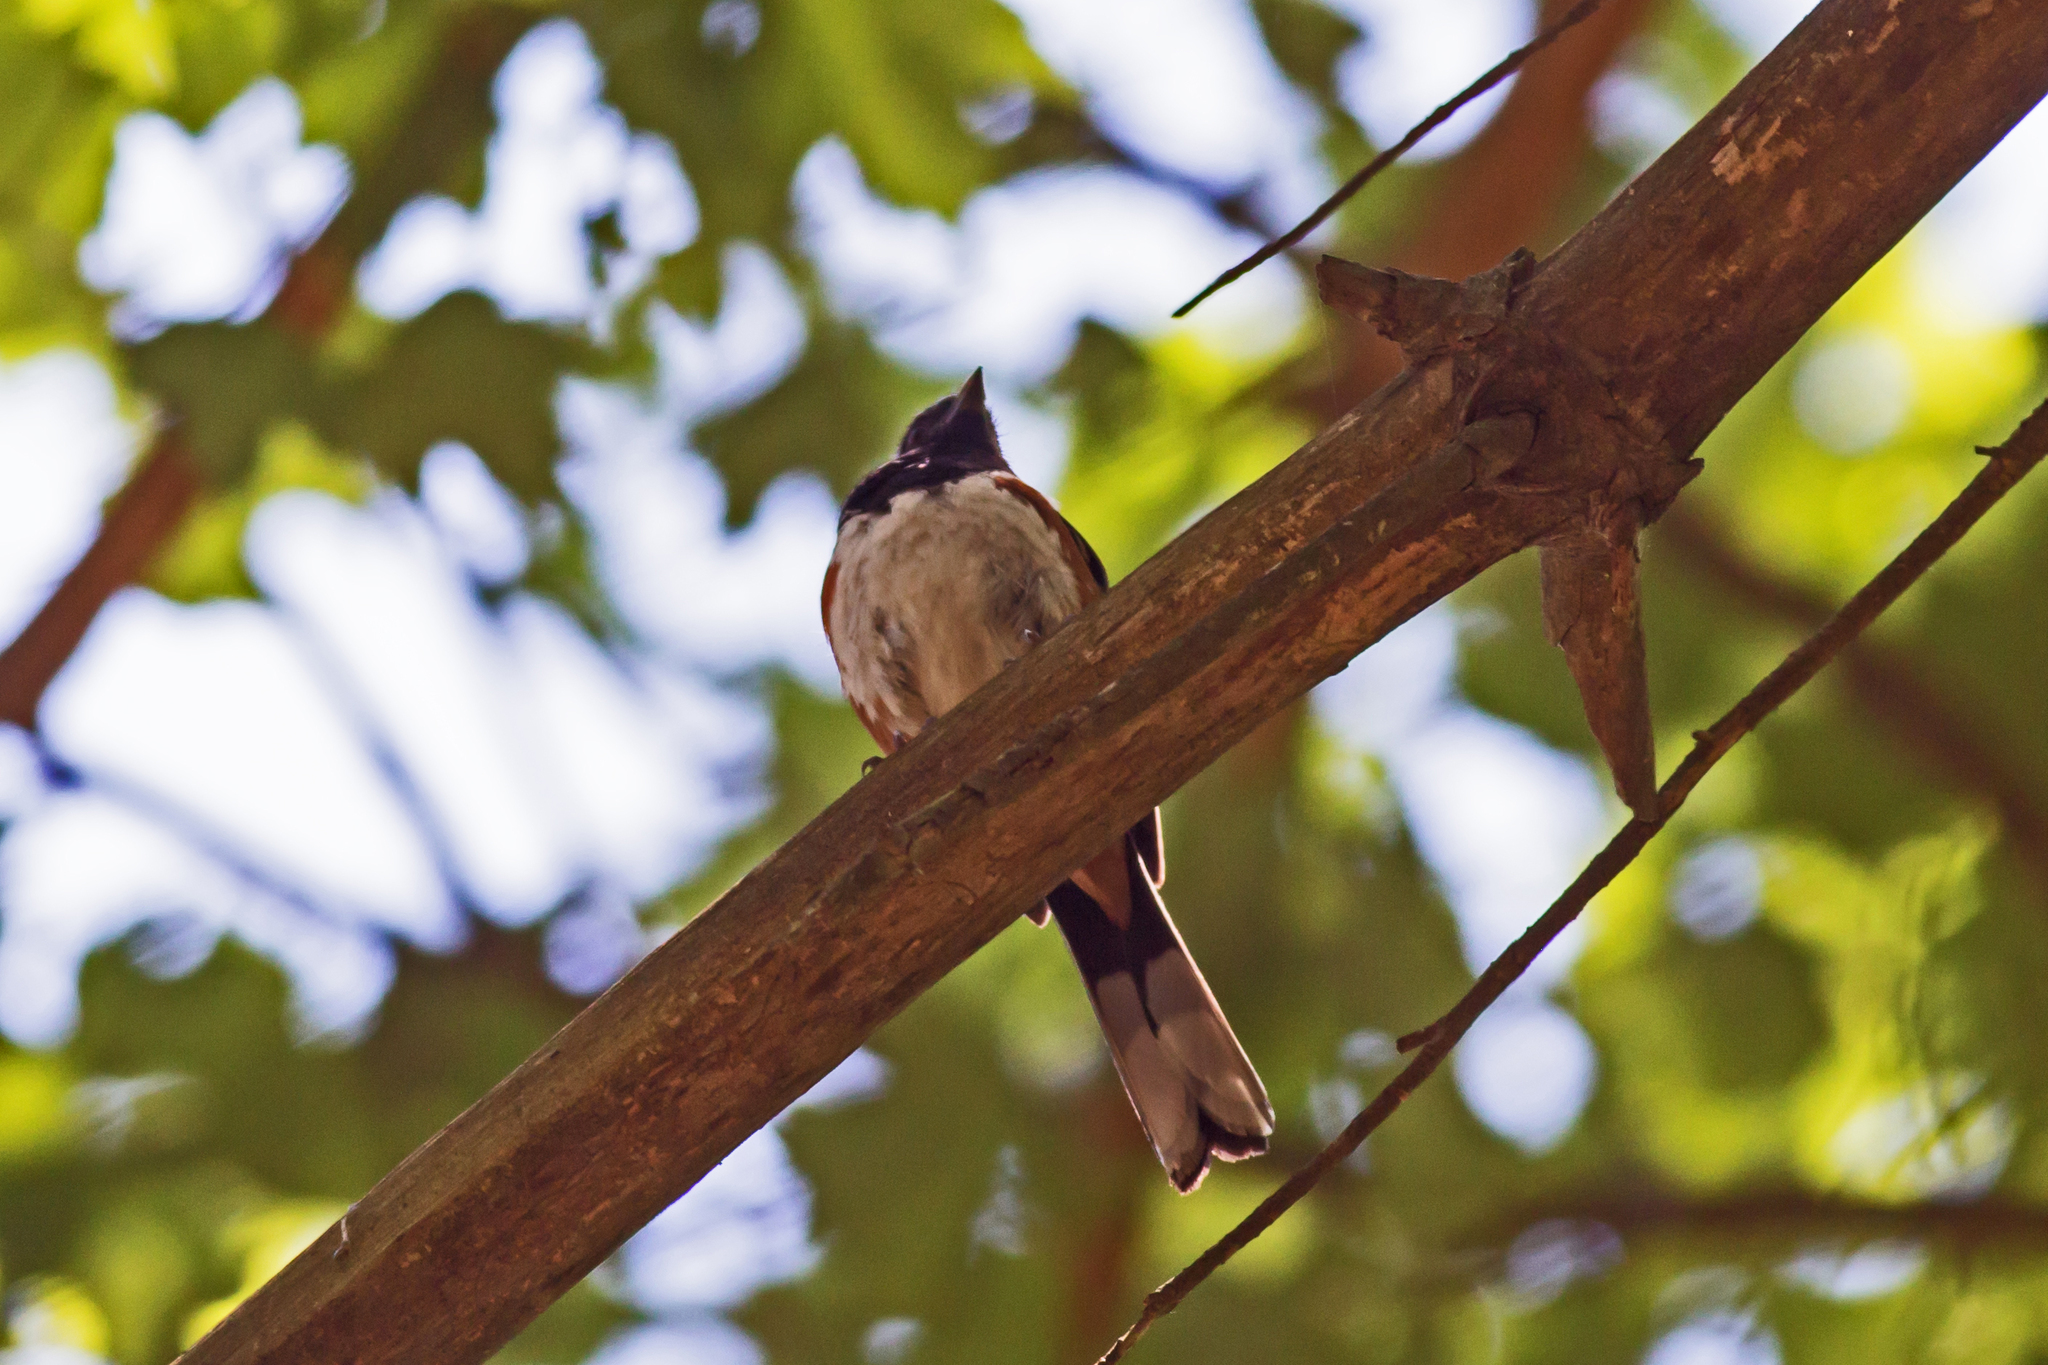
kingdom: Animalia
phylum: Chordata
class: Aves
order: Passeriformes
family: Passerellidae
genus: Pipilo
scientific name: Pipilo erythrophthalmus
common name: Eastern towhee
